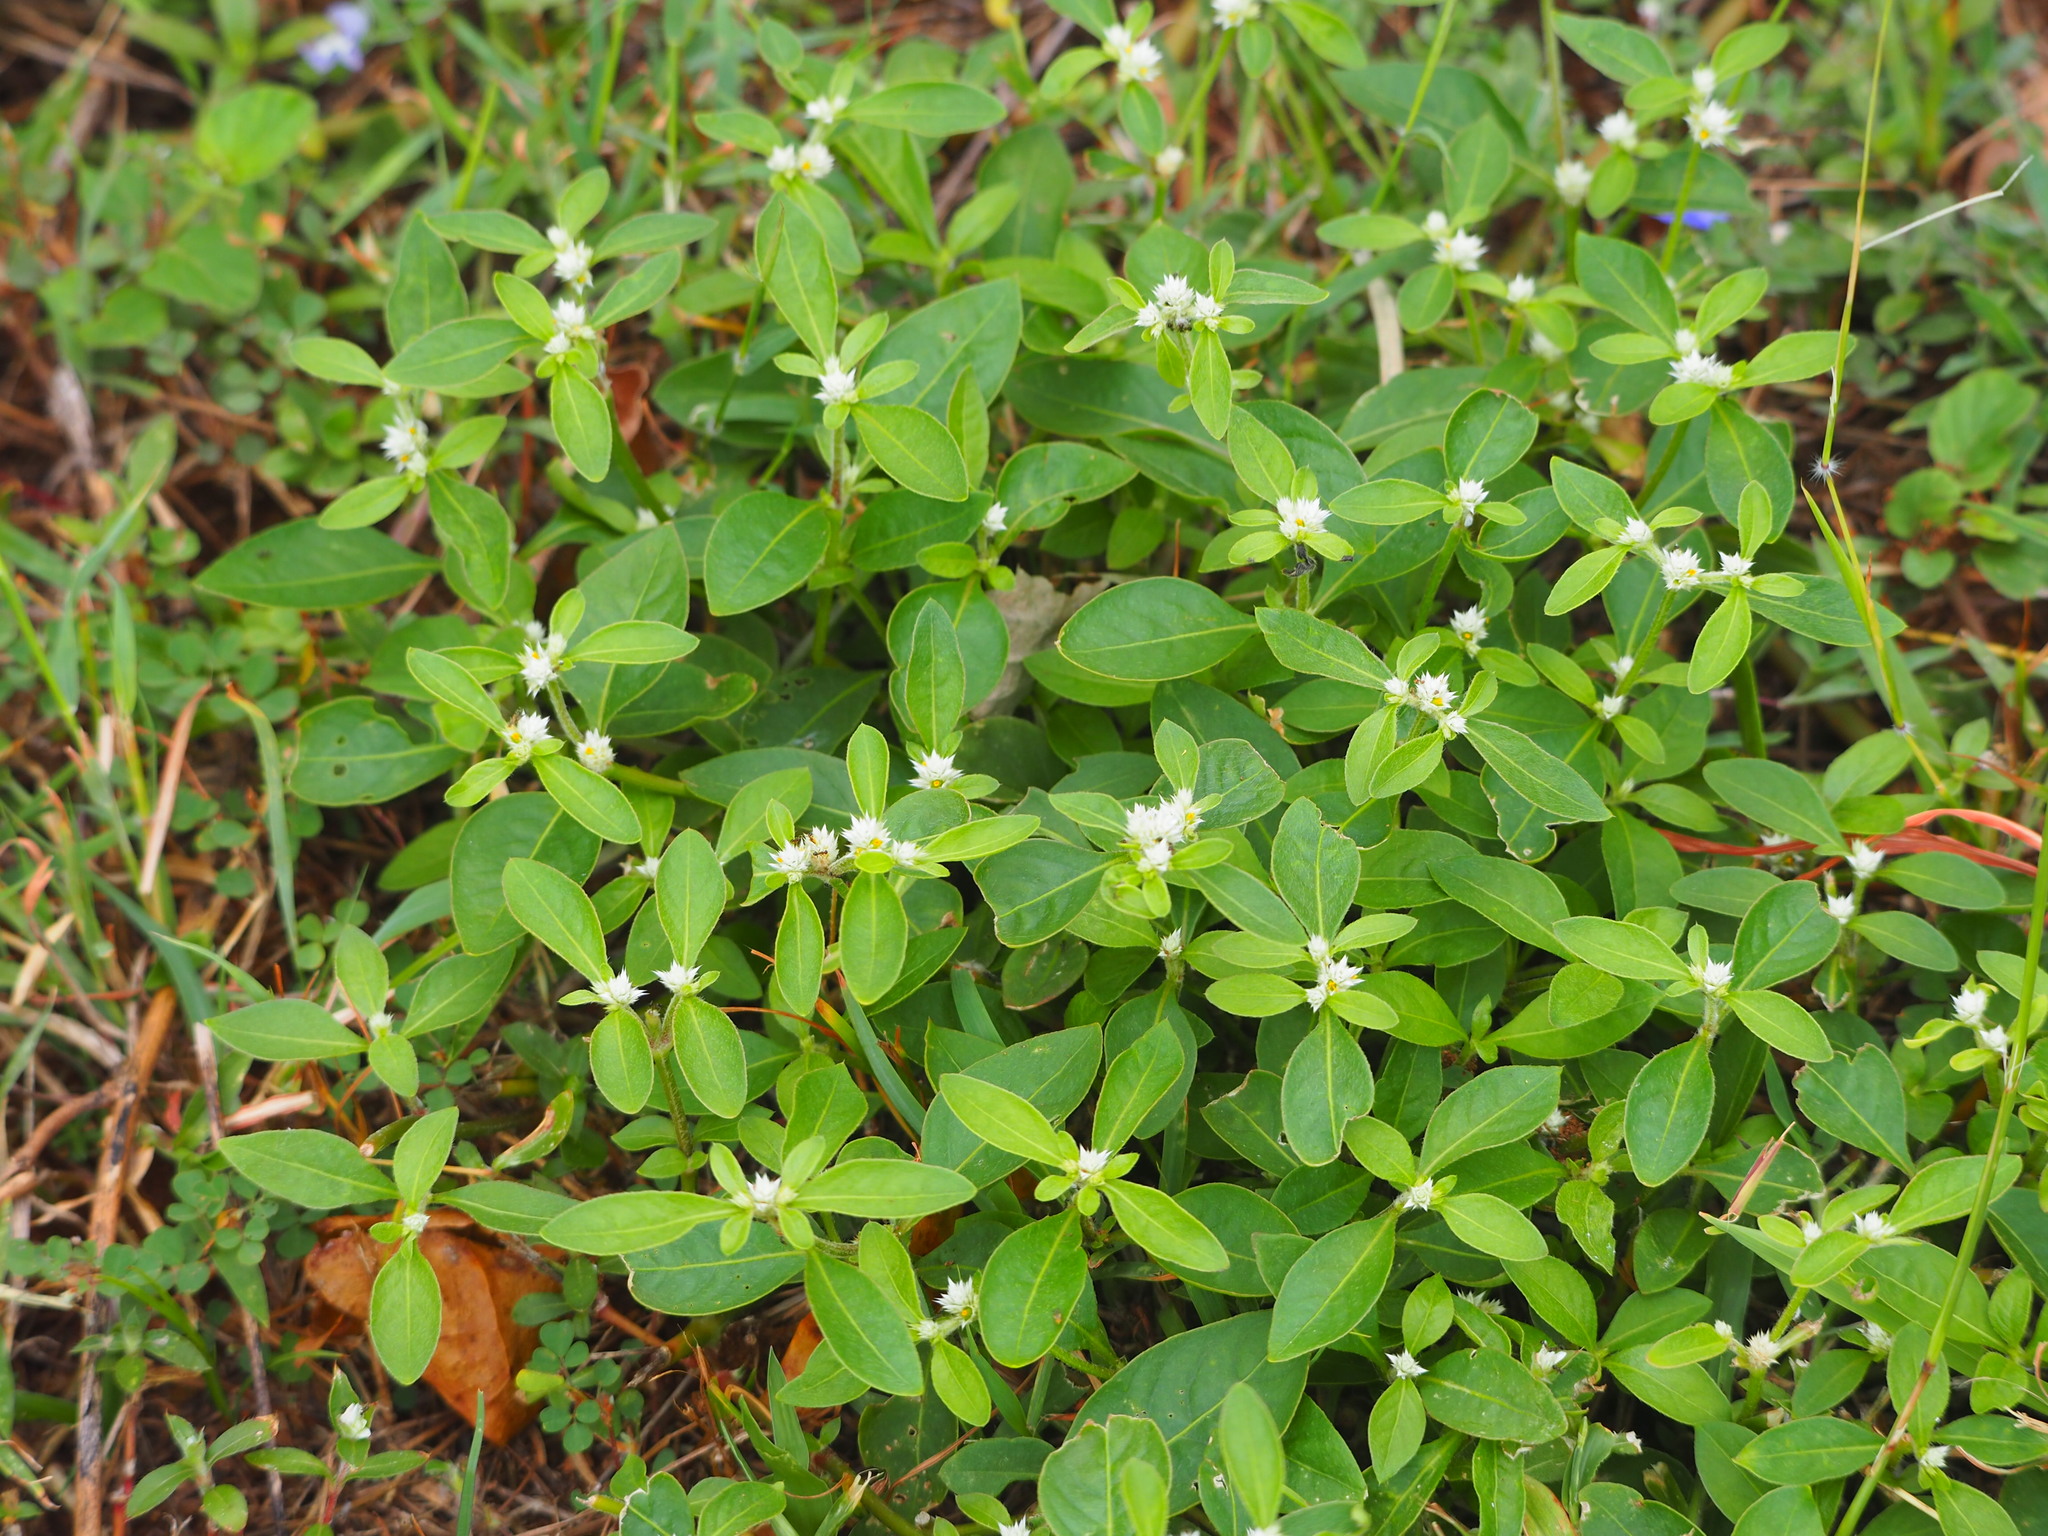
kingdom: Plantae
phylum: Tracheophyta
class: Magnoliopsida
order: Caryophyllales
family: Amaranthaceae
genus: Alternanthera
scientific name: Alternanthera bettzickiana
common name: Calico-plant
